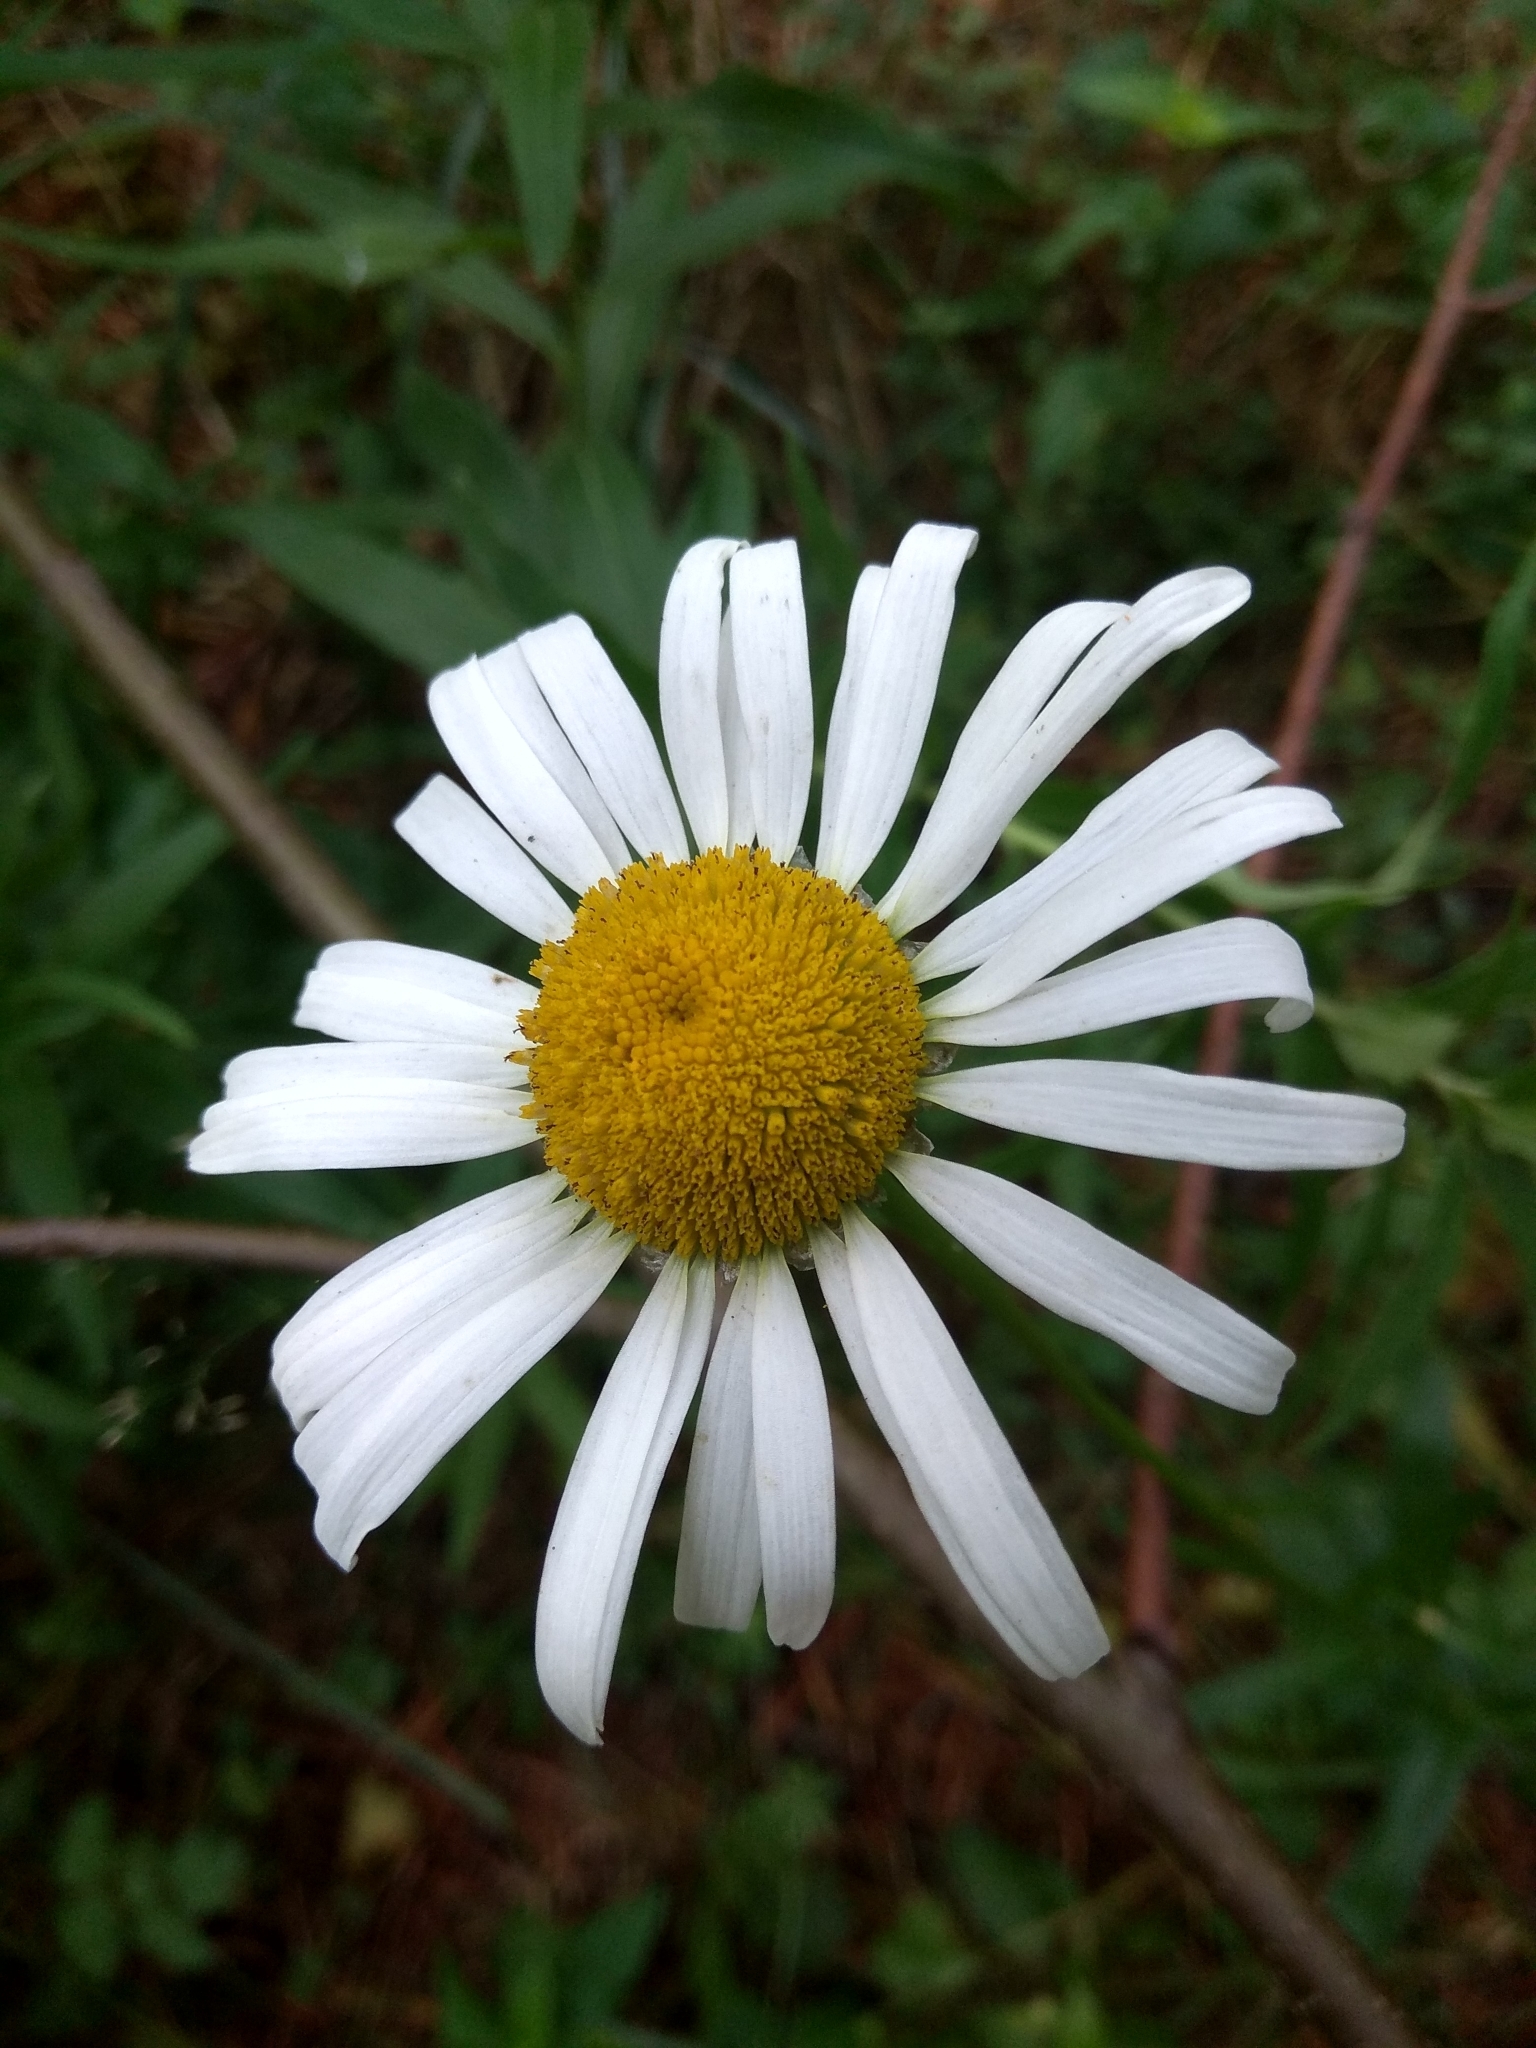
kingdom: Plantae
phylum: Tracheophyta
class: Magnoliopsida
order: Asterales
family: Asteraceae
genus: Leucanthemum
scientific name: Leucanthemum vulgare
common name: Oxeye daisy
